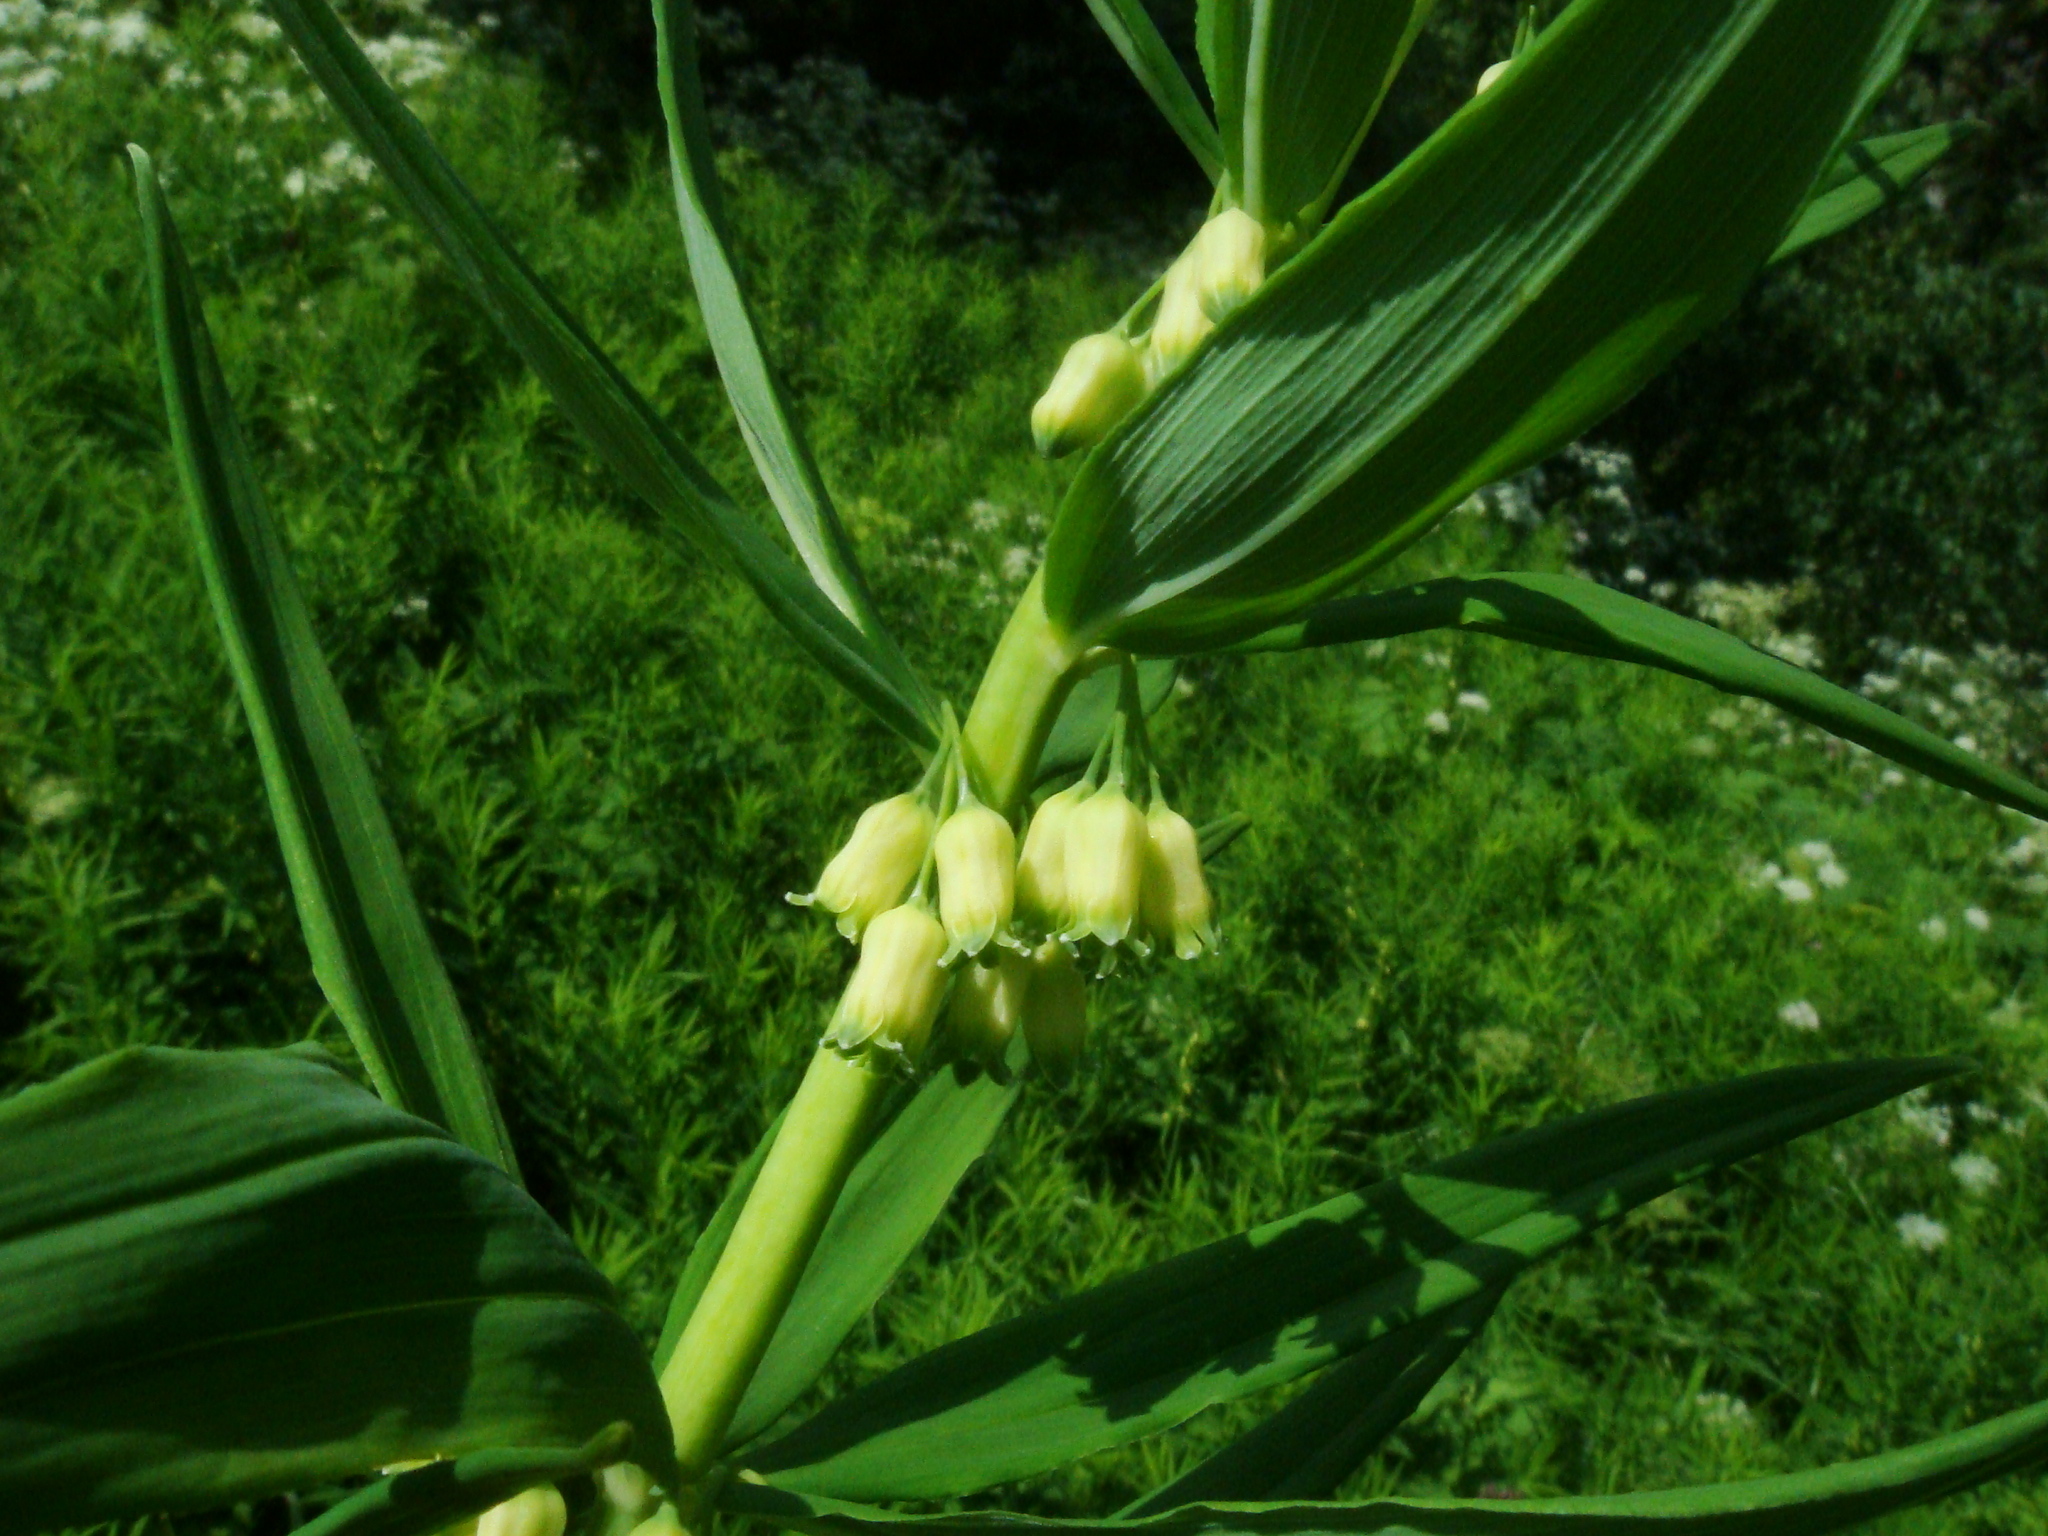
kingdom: Plantae
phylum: Tracheophyta
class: Liliopsida
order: Asparagales
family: Asparagaceae
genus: Polygonatum
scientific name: Polygonatum verticillatum
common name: Whorled solomon's-seal
